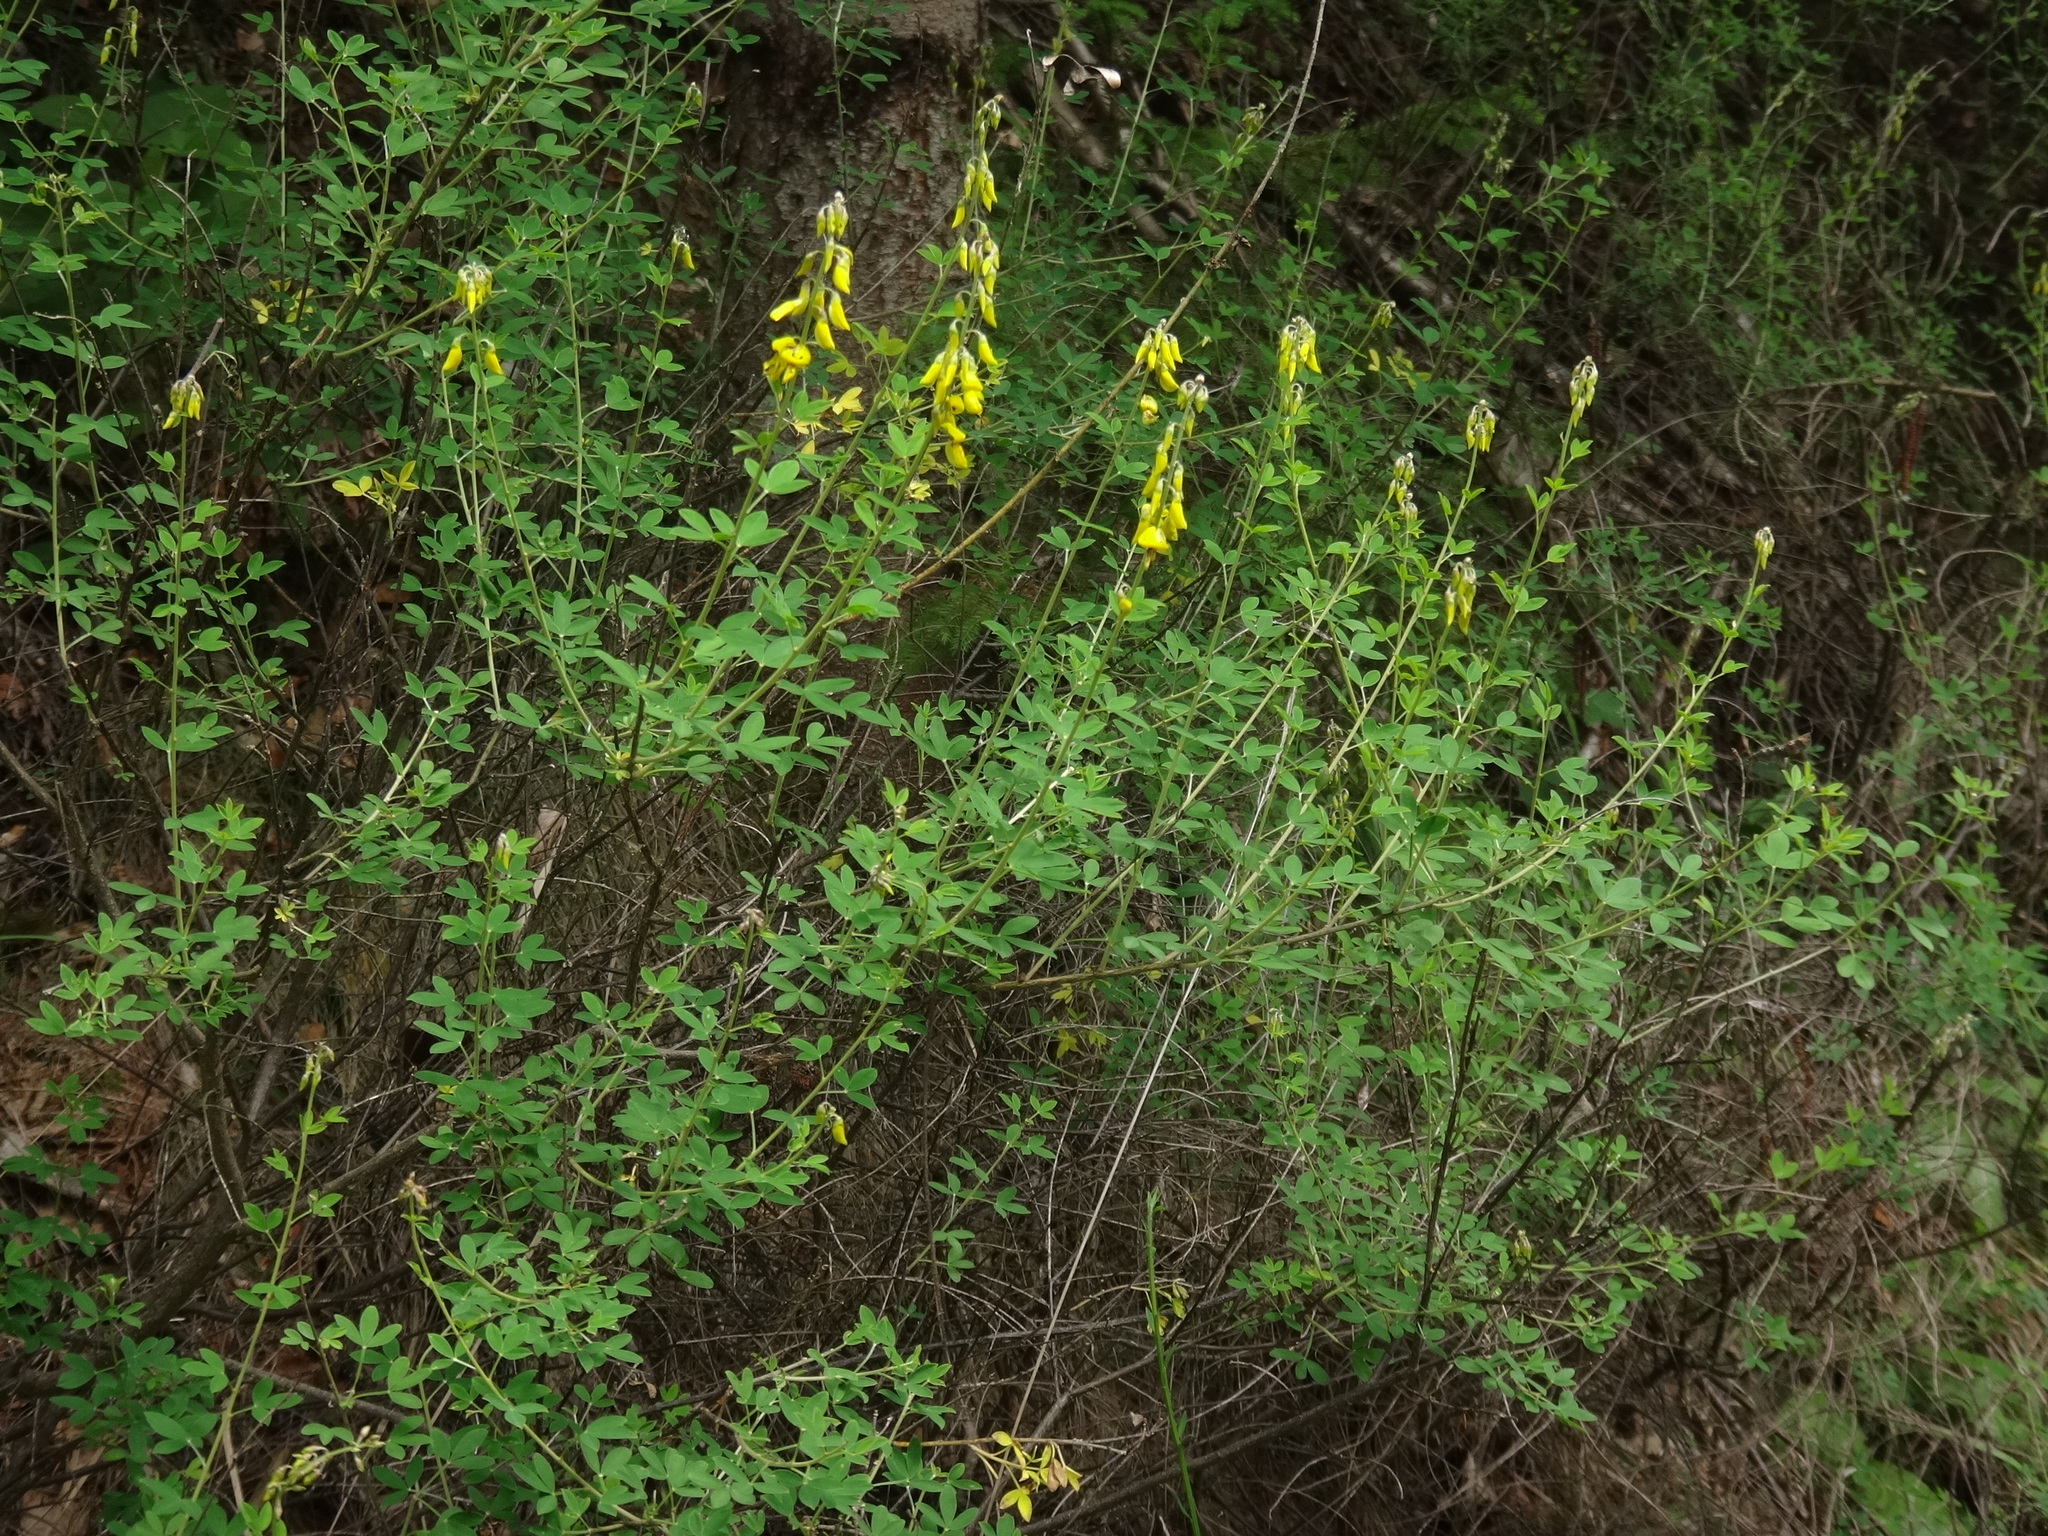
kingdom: Plantae
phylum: Tracheophyta
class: Magnoliopsida
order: Fabales
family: Fabaceae
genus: Cytisus
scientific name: Cytisus nigricans
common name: Black broom
